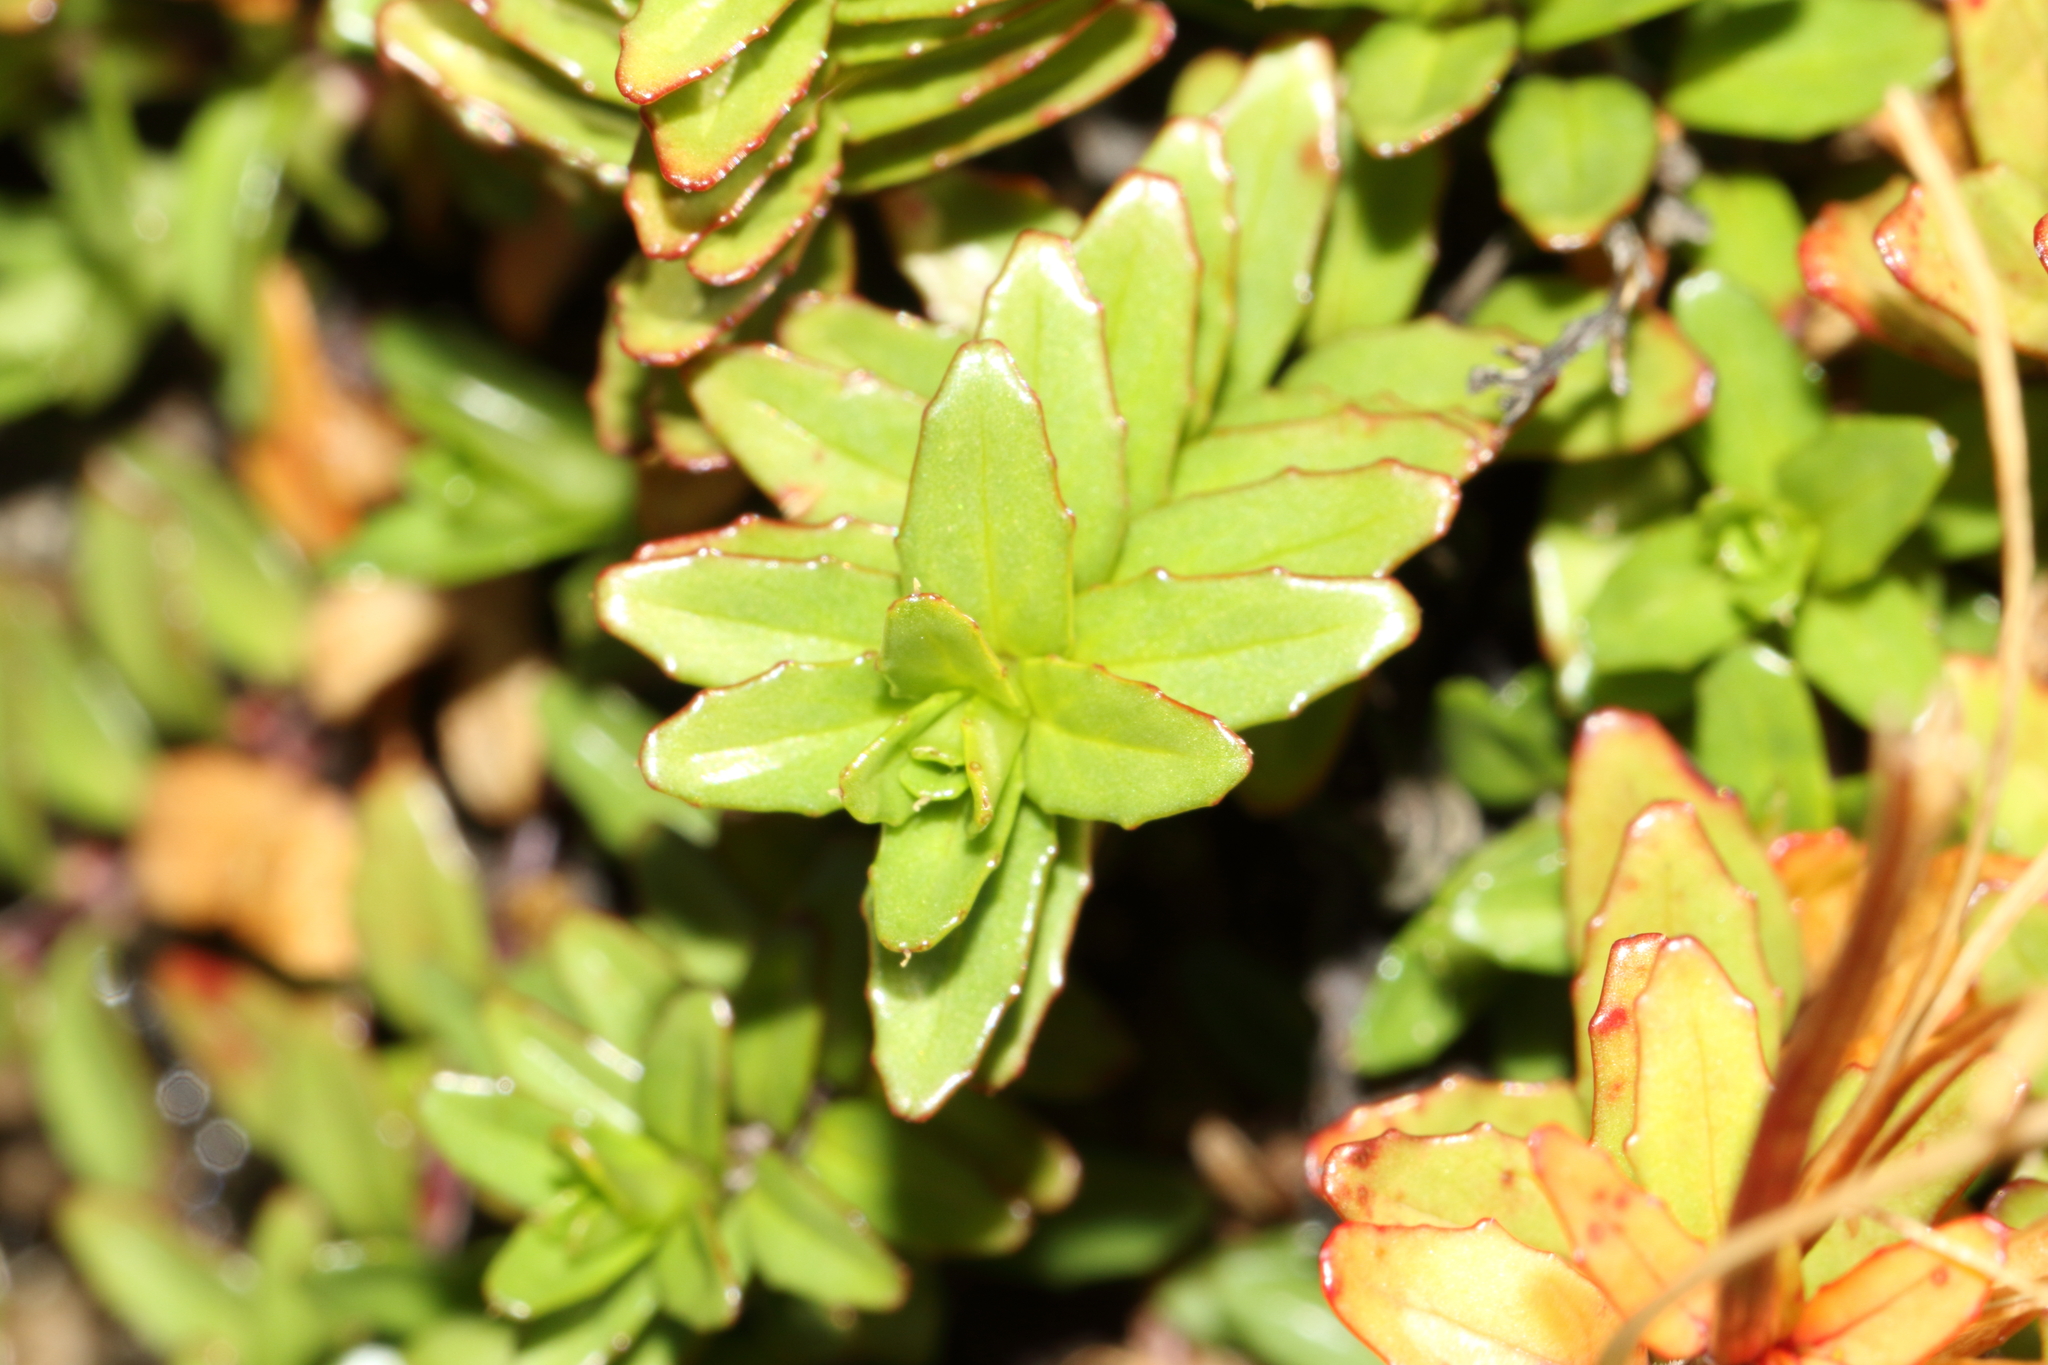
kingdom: Plantae
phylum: Tracheophyta
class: Magnoliopsida
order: Myrtales
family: Onagraceae
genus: Epilobium
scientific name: Epilobium glabellum
